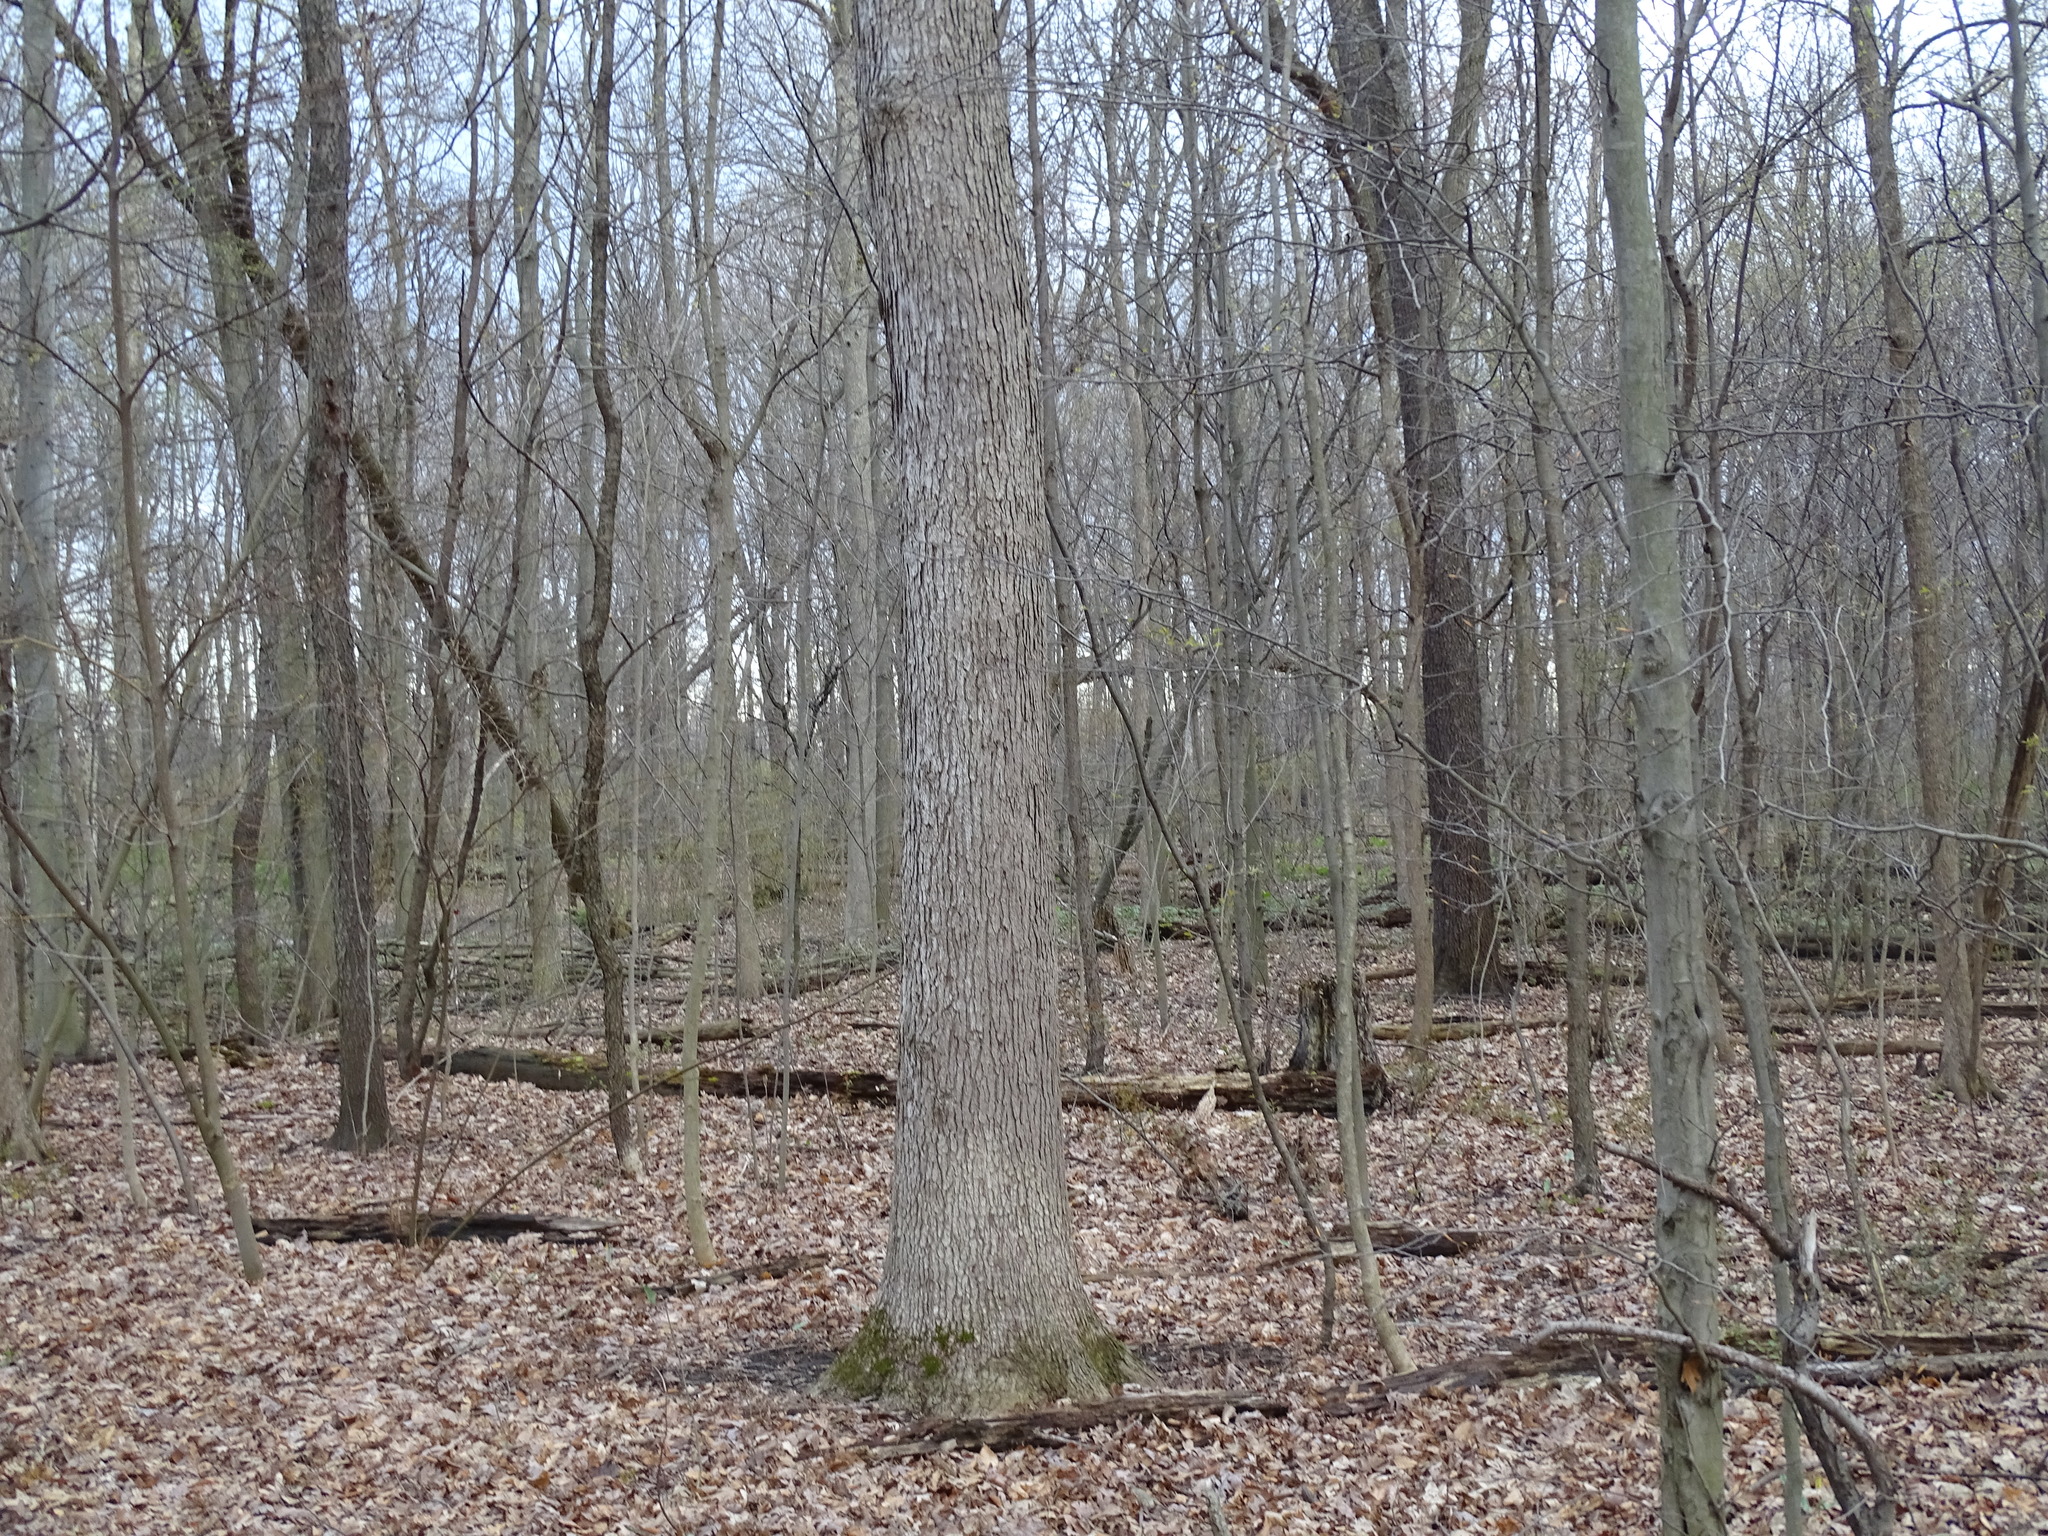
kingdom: Plantae
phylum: Tracheophyta
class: Magnoliopsida
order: Fagales
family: Fagaceae
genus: Quercus
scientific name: Quercus alba
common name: White oak
